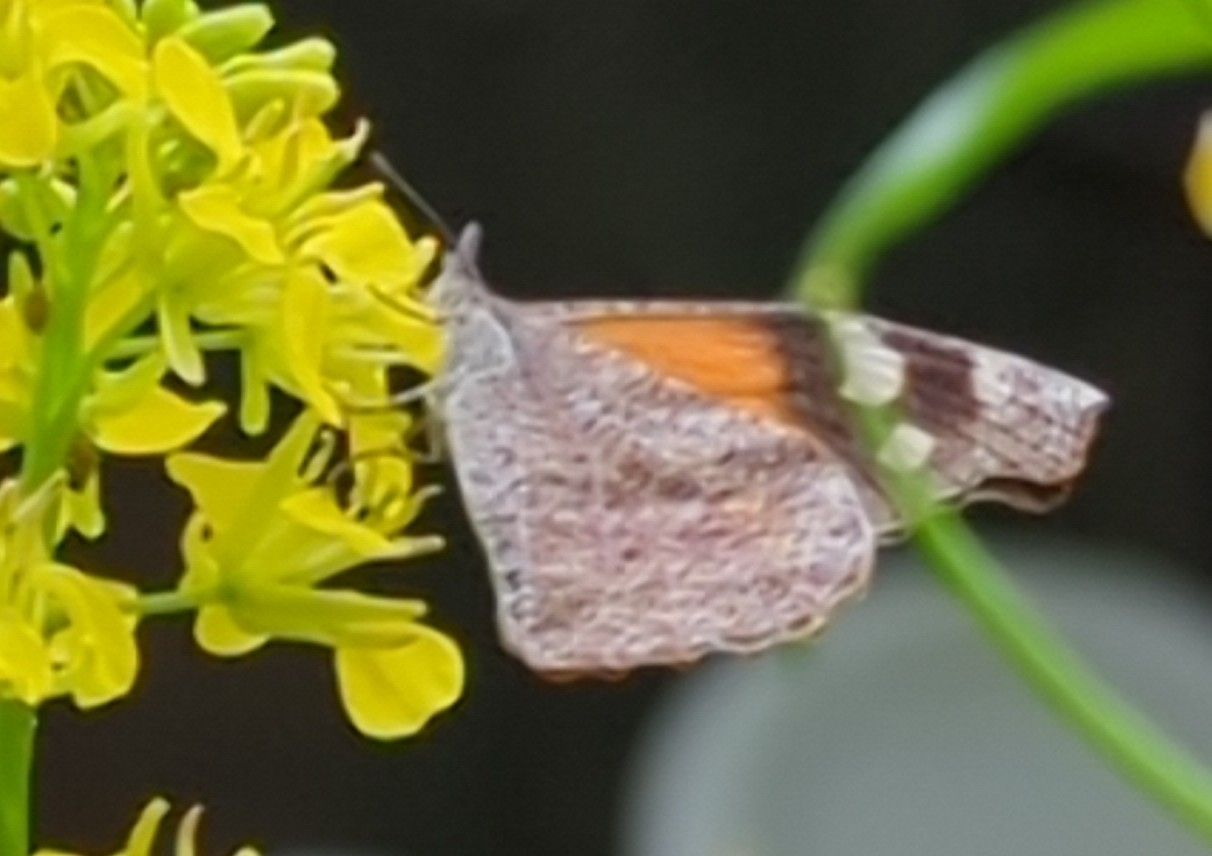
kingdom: Animalia
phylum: Arthropoda
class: Insecta
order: Lepidoptera
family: Nymphalidae
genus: Libytheana
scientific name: Libytheana carinenta
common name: American snout
